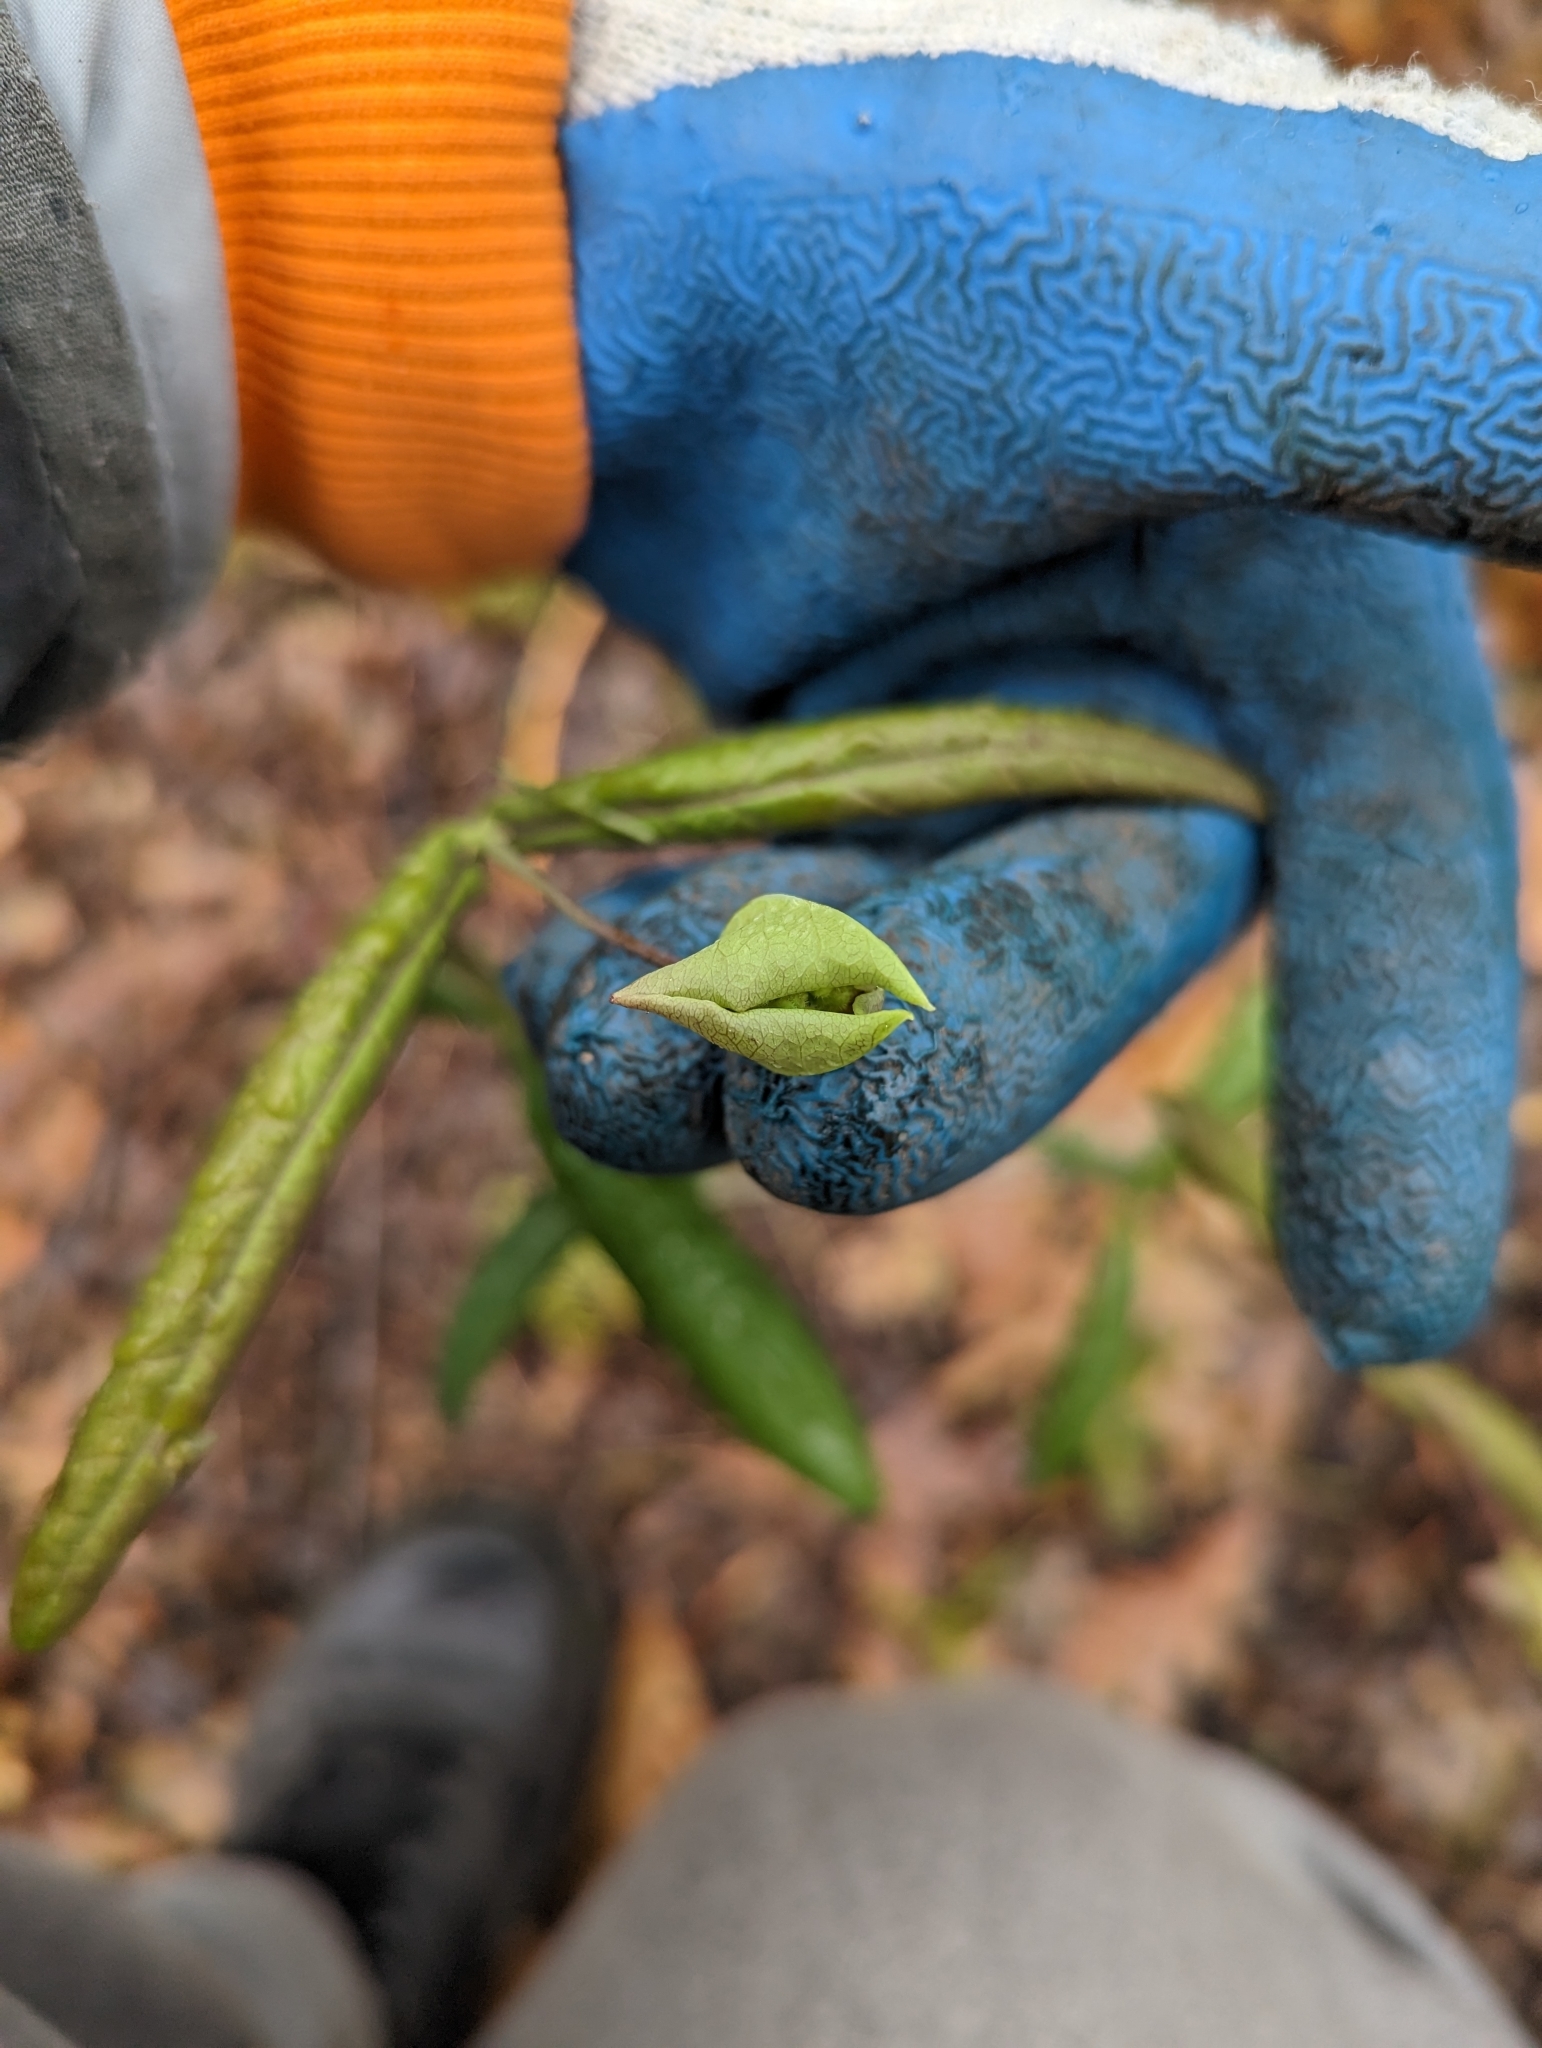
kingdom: Plantae
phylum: Tracheophyta
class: Magnoliopsida
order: Dipsacales
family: Caprifoliaceae
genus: Lonicera
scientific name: Lonicera dioica
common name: Limber honeysuckle
